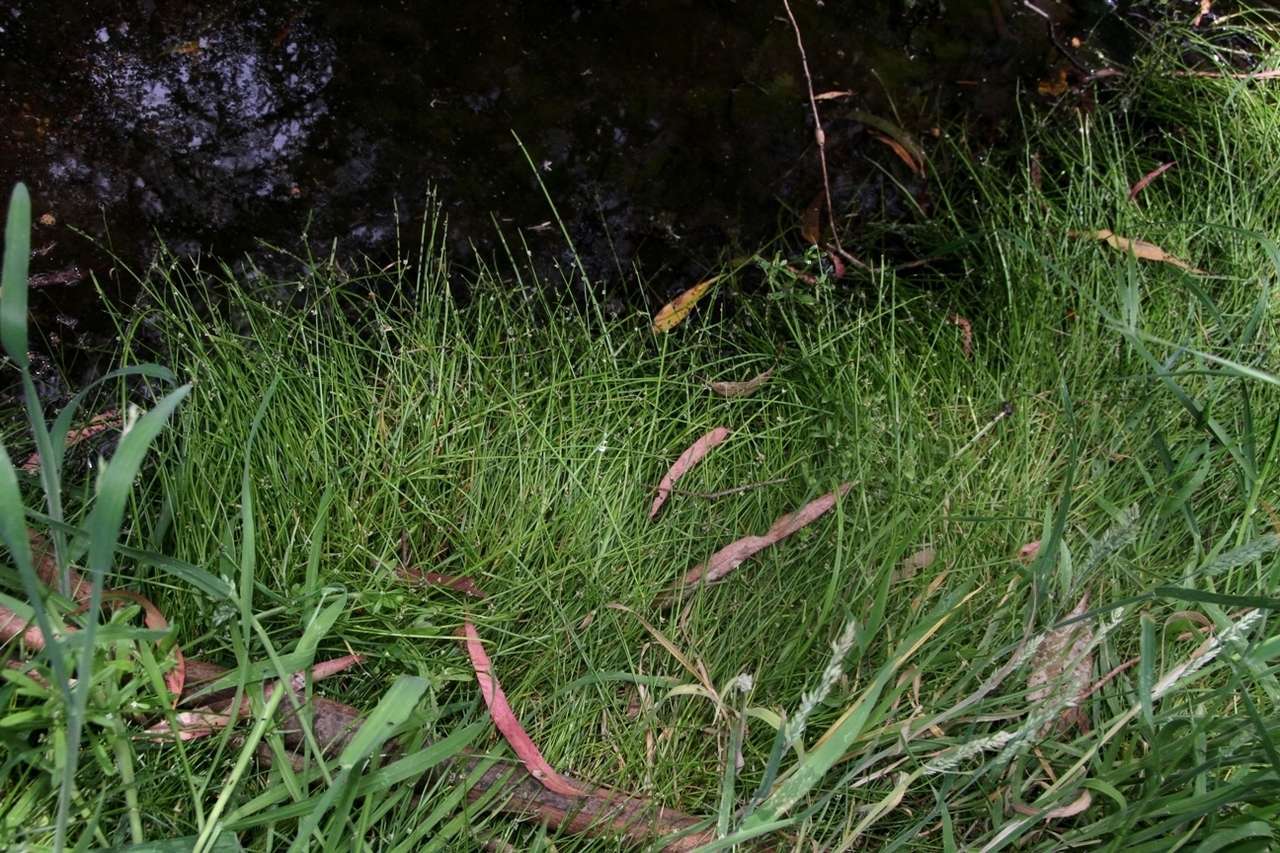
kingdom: Plantae
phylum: Tracheophyta
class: Liliopsida
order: Poales
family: Cyperaceae
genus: Isolepis
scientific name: Isolepis inundata
